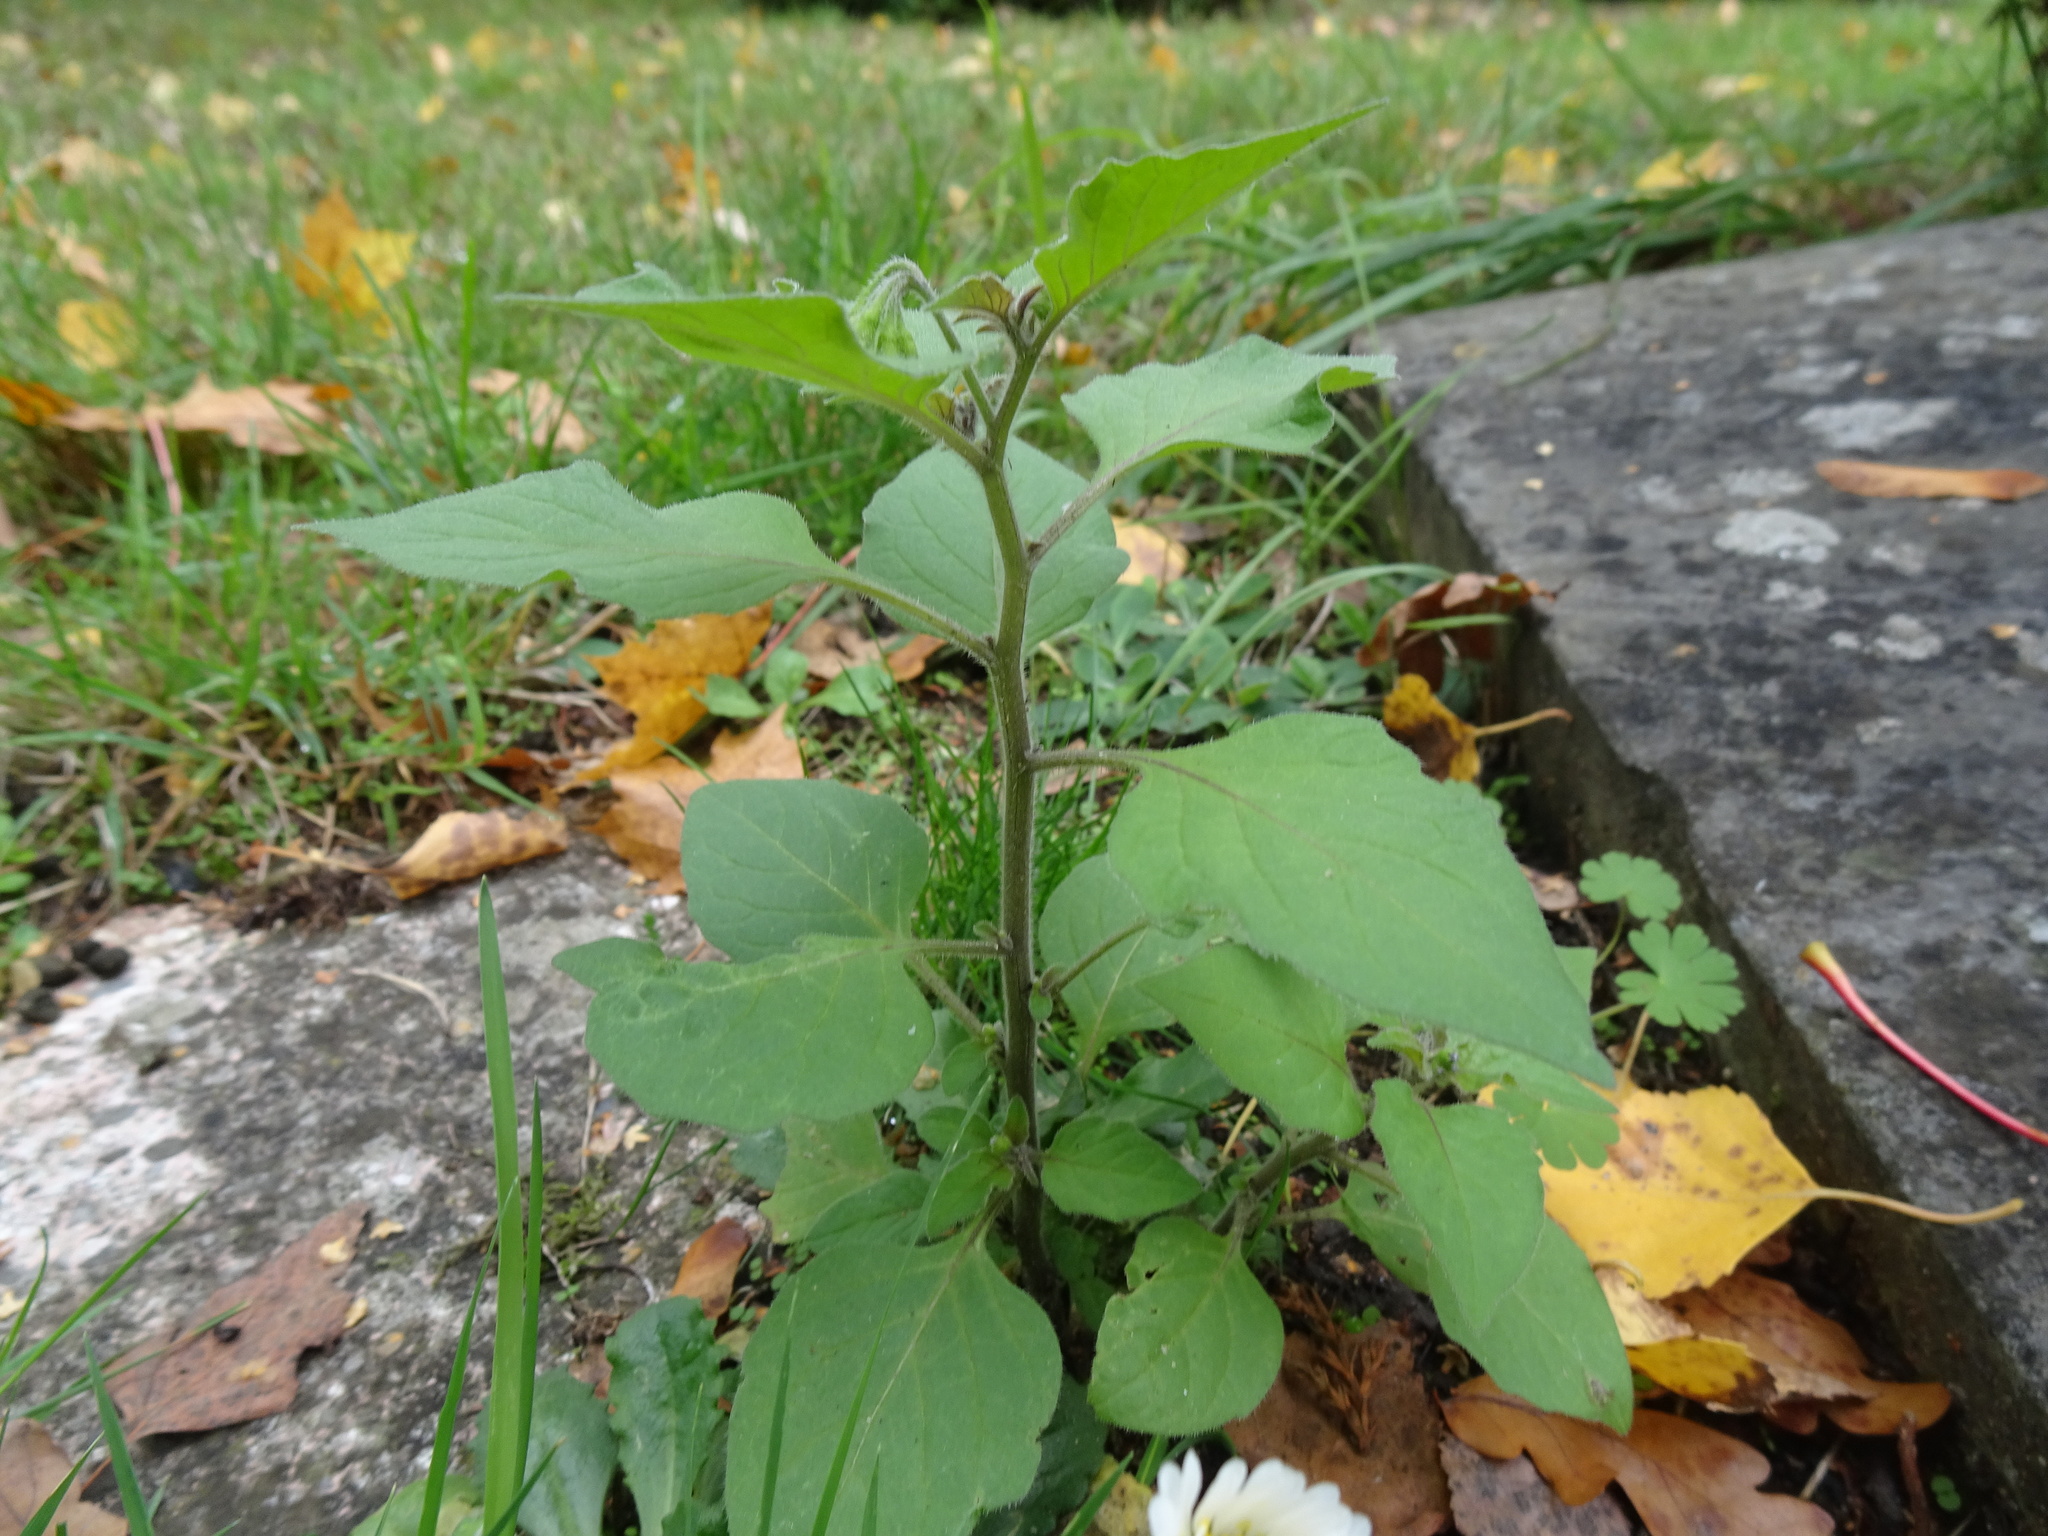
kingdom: Plantae
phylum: Tracheophyta
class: Magnoliopsida
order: Solanales
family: Solanaceae
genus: Solanum
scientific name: Solanum nigrum
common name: Black nightshade
